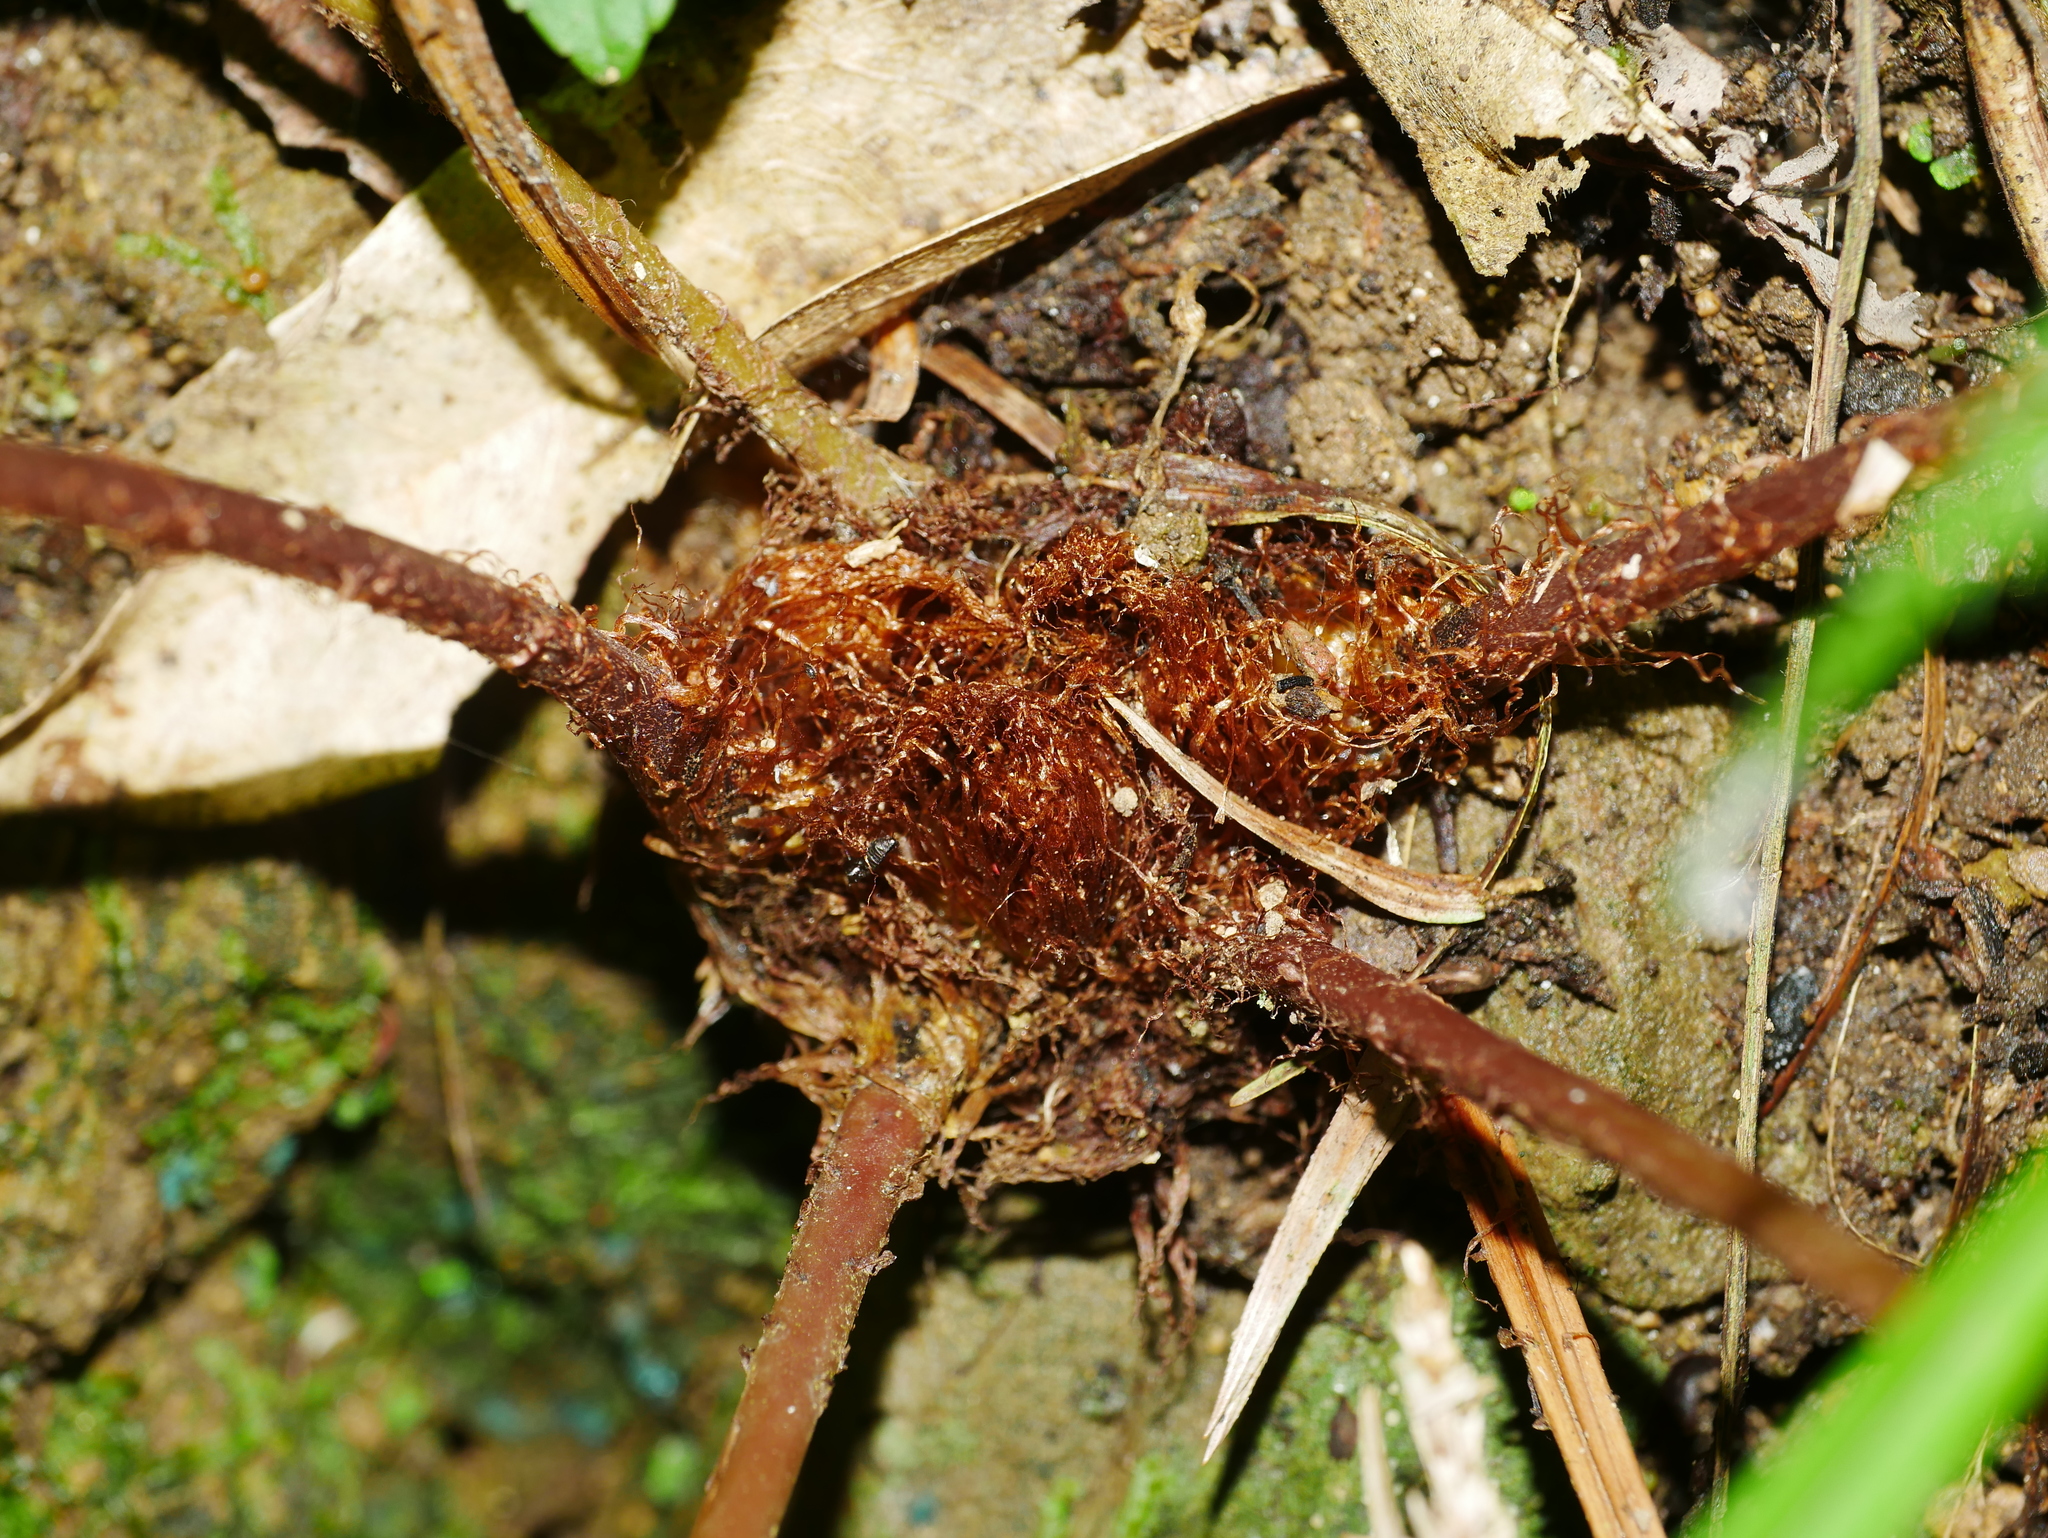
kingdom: Plantae
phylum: Tracheophyta
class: Polypodiopsida
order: Polypodiales
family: Athyriaceae
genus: Athyrium
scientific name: Athyrium drepanopteron
